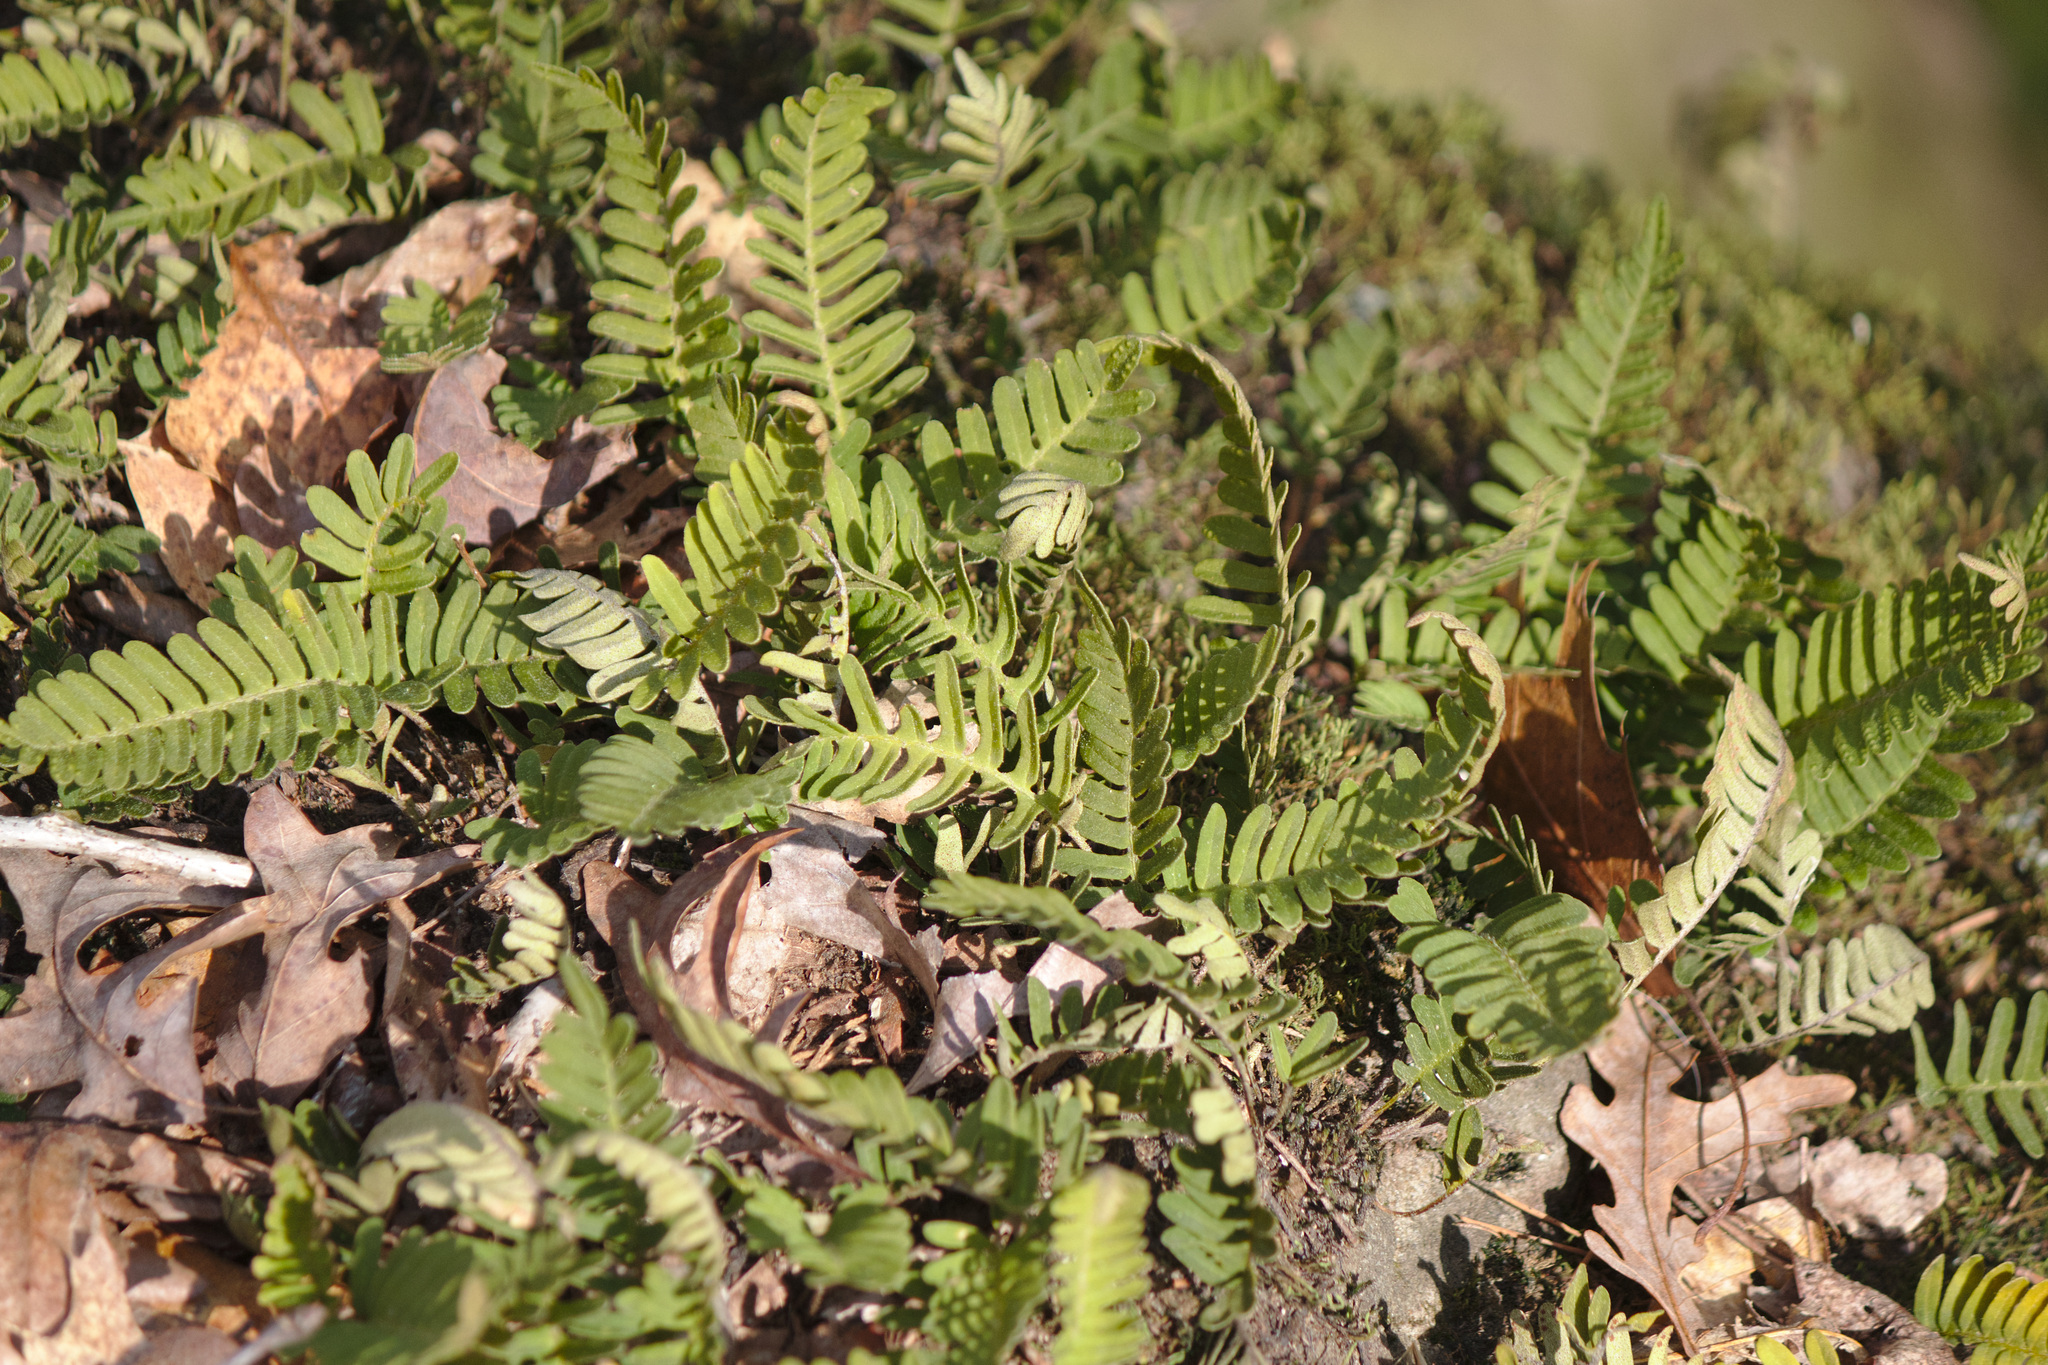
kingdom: Plantae
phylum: Tracheophyta
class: Polypodiopsida
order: Polypodiales
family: Polypodiaceae
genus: Pleopeltis
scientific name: Pleopeltis michauxiana
